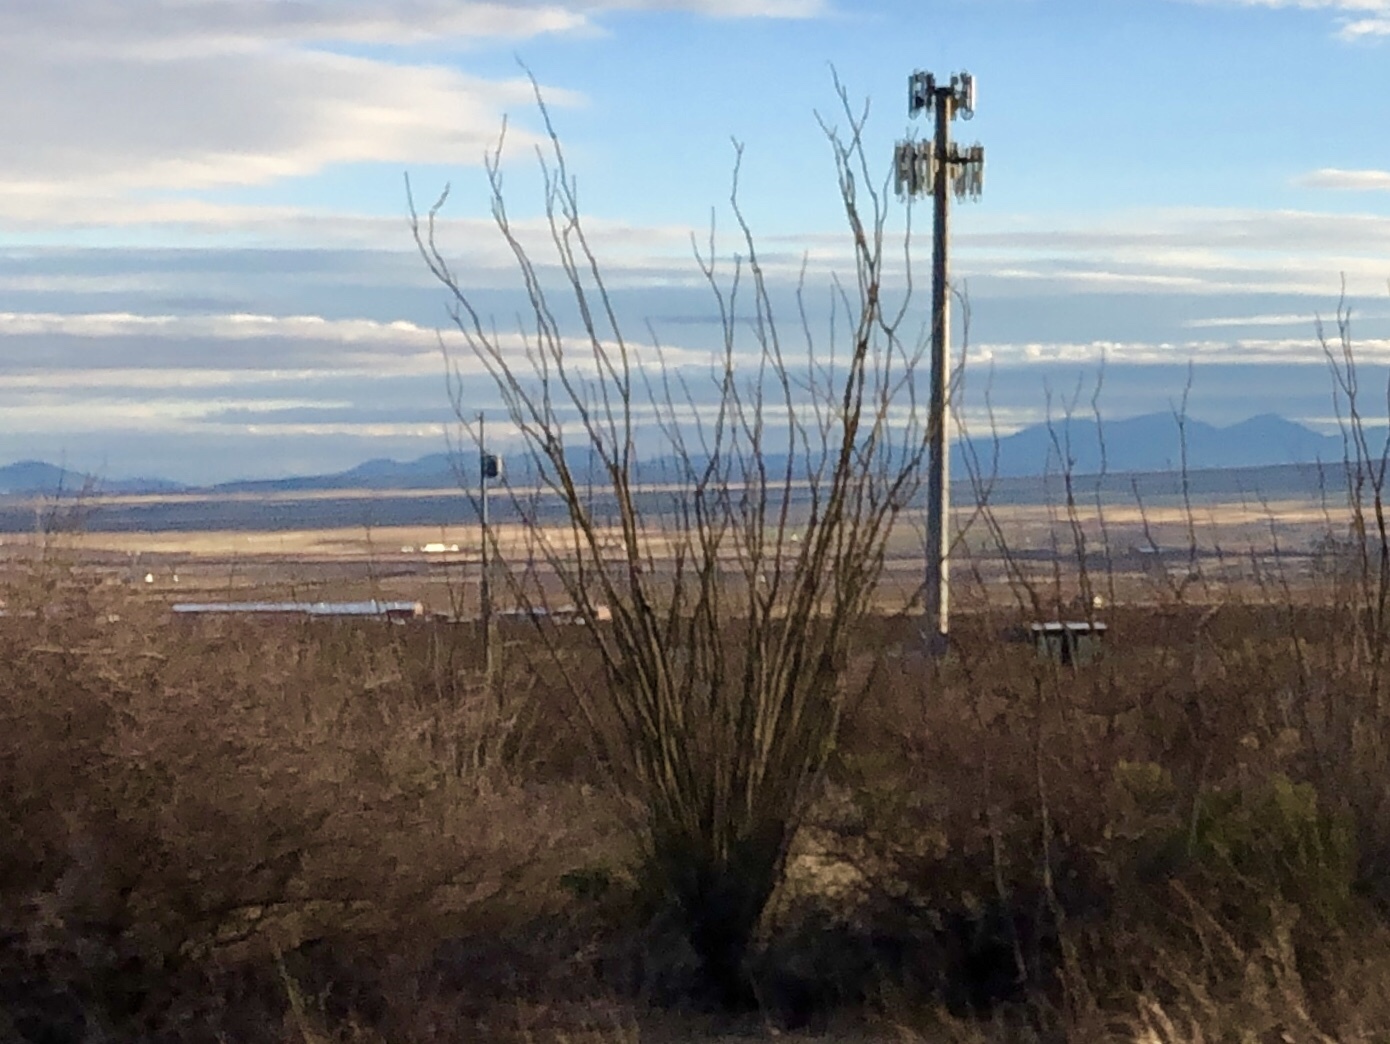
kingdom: Plantae
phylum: Tracheophyta
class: Magnoliopsida
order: Ericales
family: Fouquieriaceae
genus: Fouquieria
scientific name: Fouquieria splendens
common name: Vine-cactus
